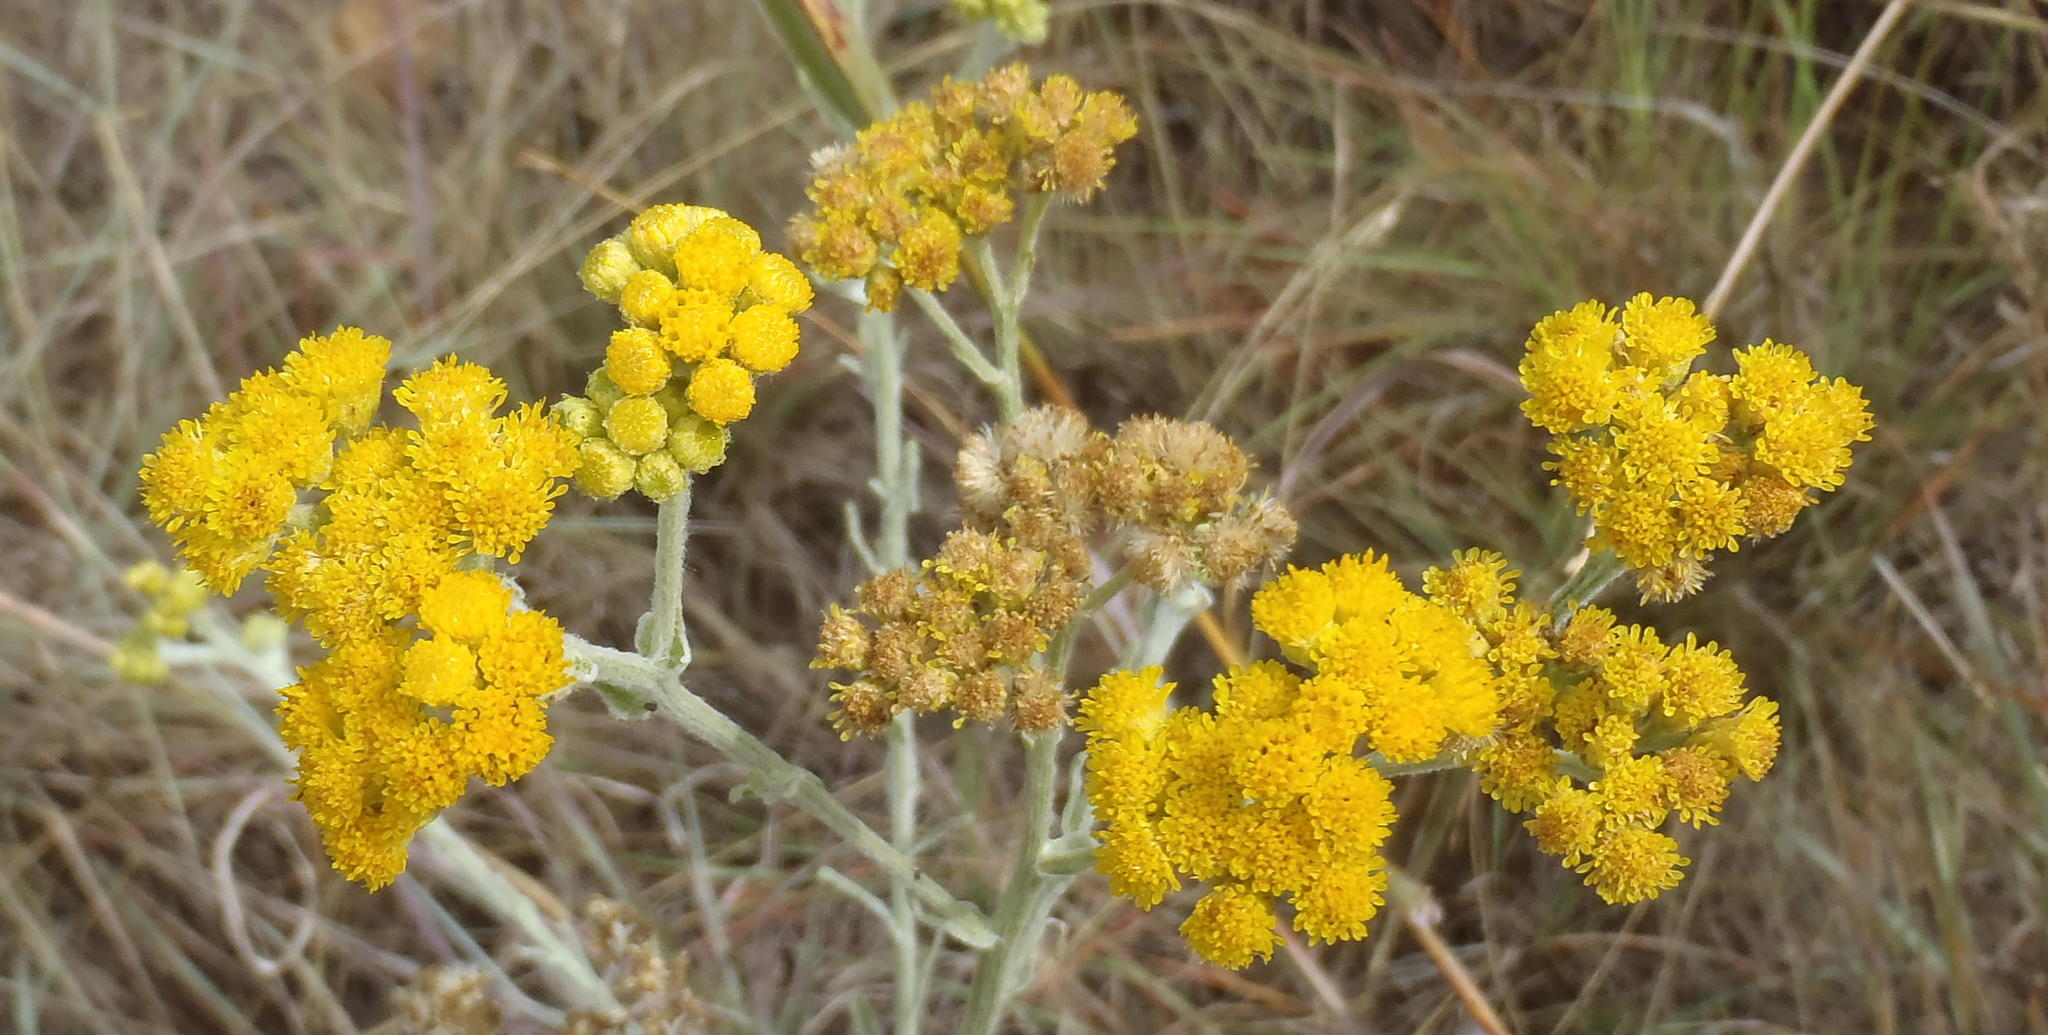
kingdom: Plantae
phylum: Tracheophyta
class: Magnoliopsida
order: Asterales
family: Asteraceae
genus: Nidorella
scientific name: Nidorella hottentotica
